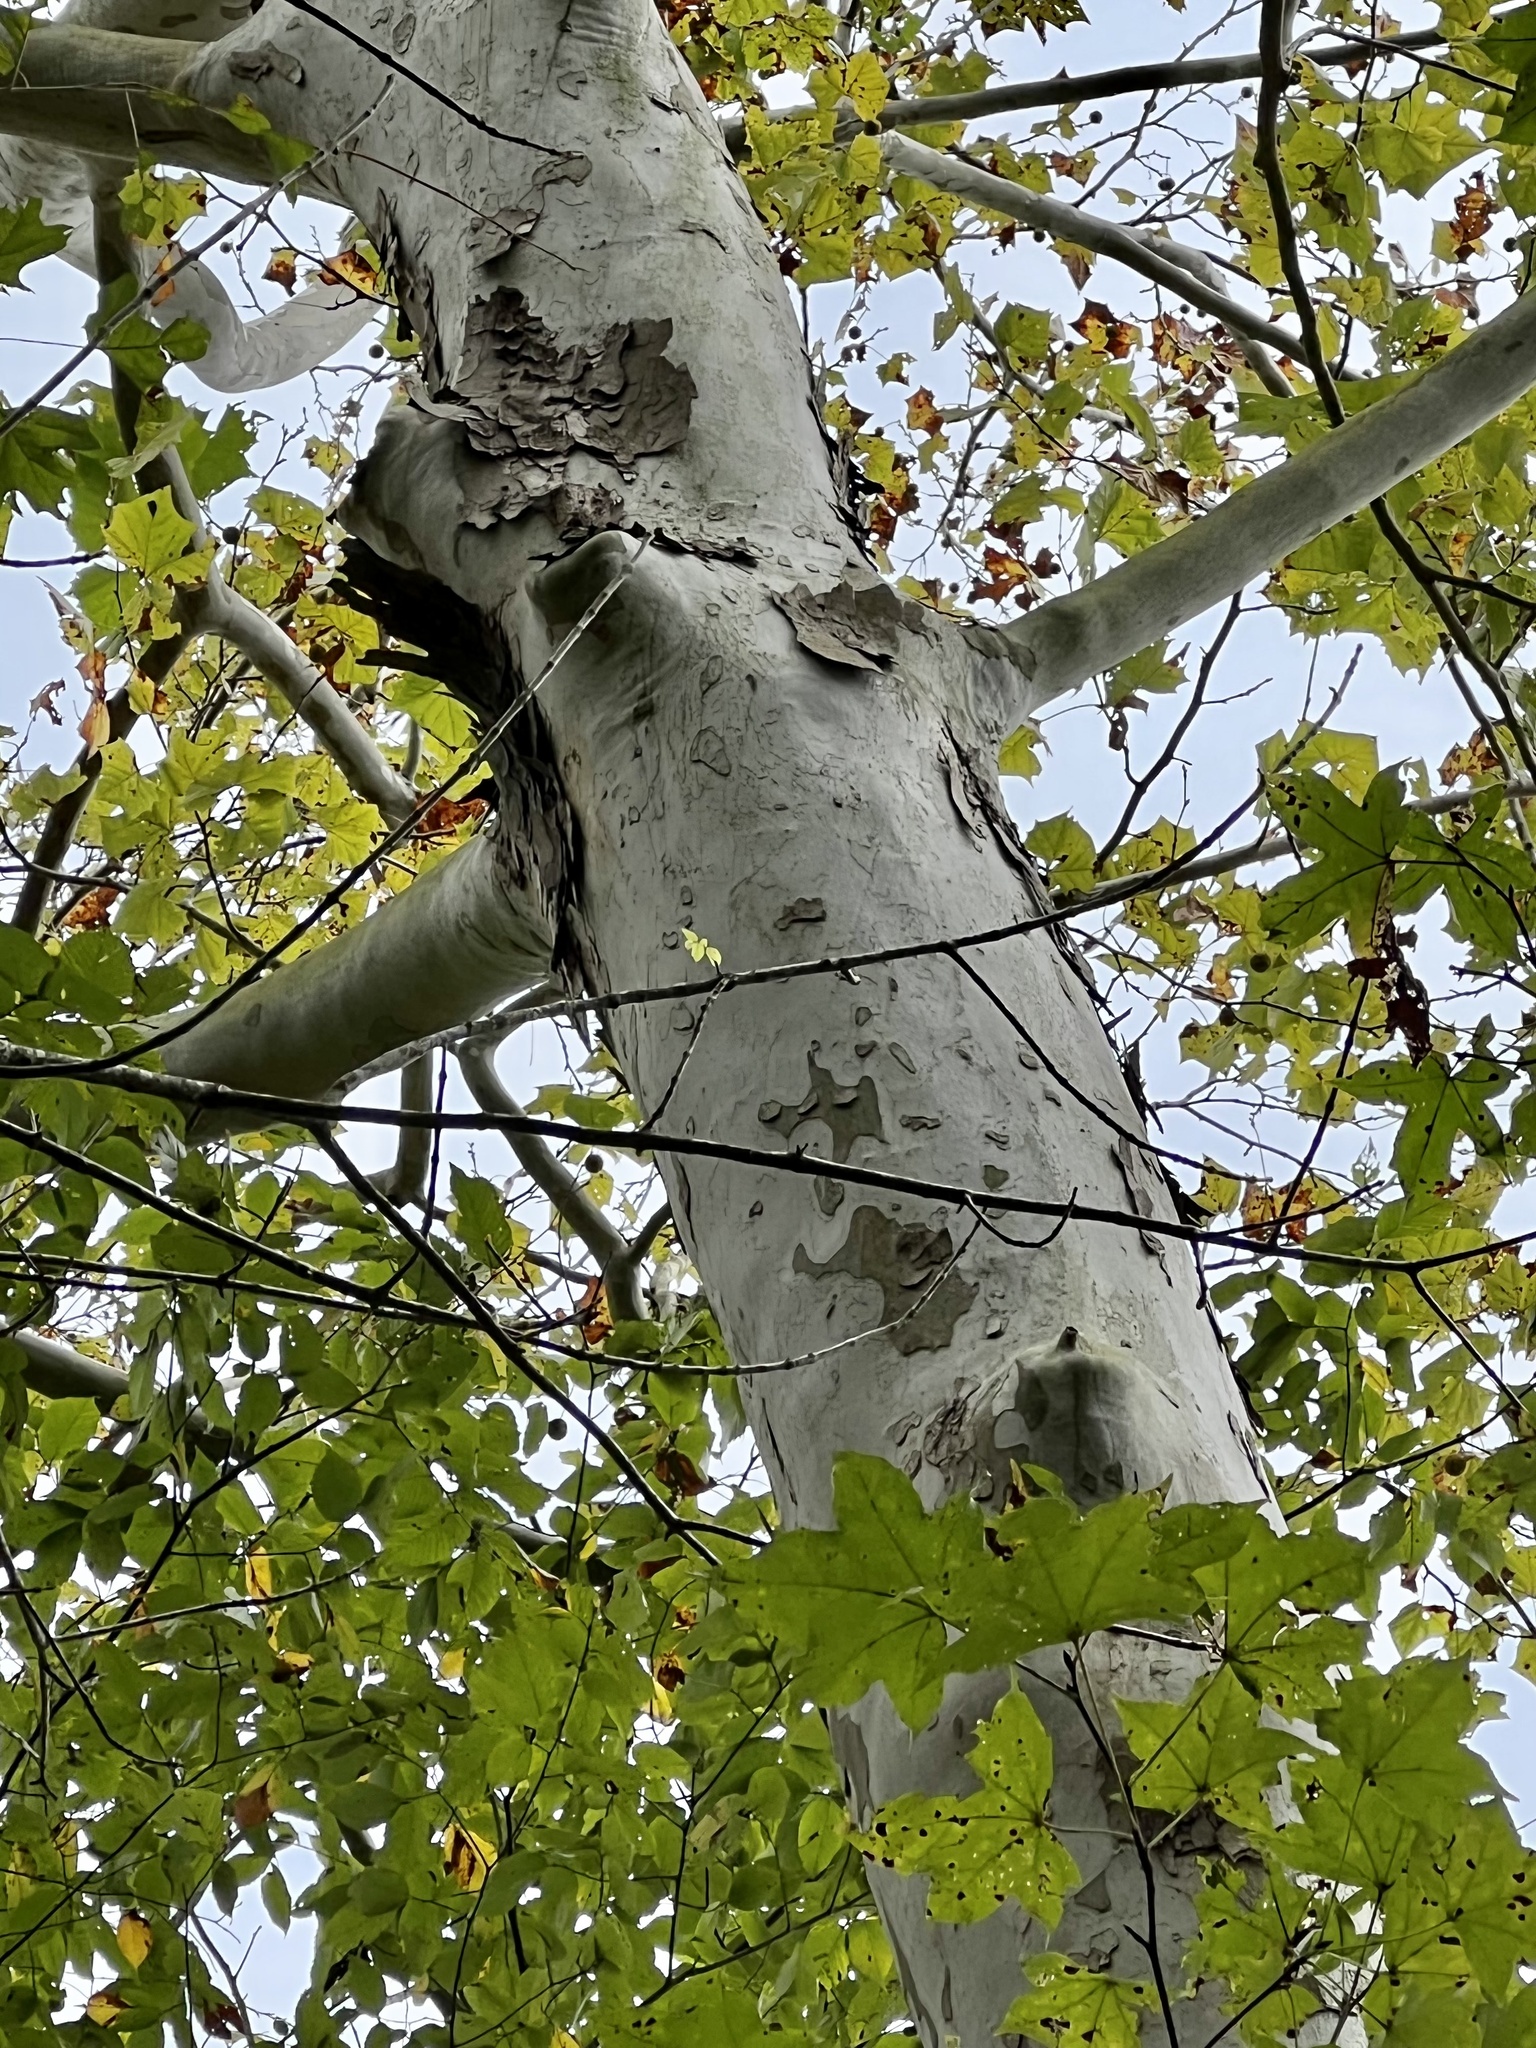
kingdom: Plantae
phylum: Tracheophyta
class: Magnoliopsida
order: Proteales
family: Platanaceae
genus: Platanus
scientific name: Platanus occidentalis
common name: American sycamore
